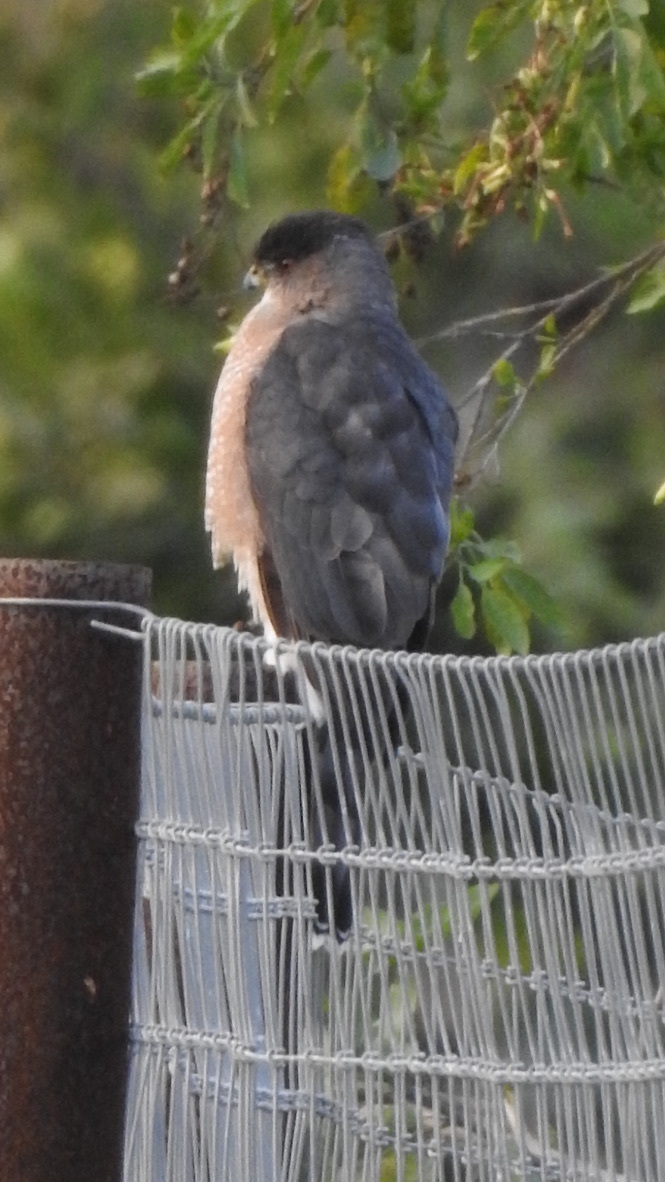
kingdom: Animalia
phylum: Chordata
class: Aves
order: Accipitriformes
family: Accipitridae
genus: Accipiter
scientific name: Accipiter cooperii
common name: Cooper's hawk
